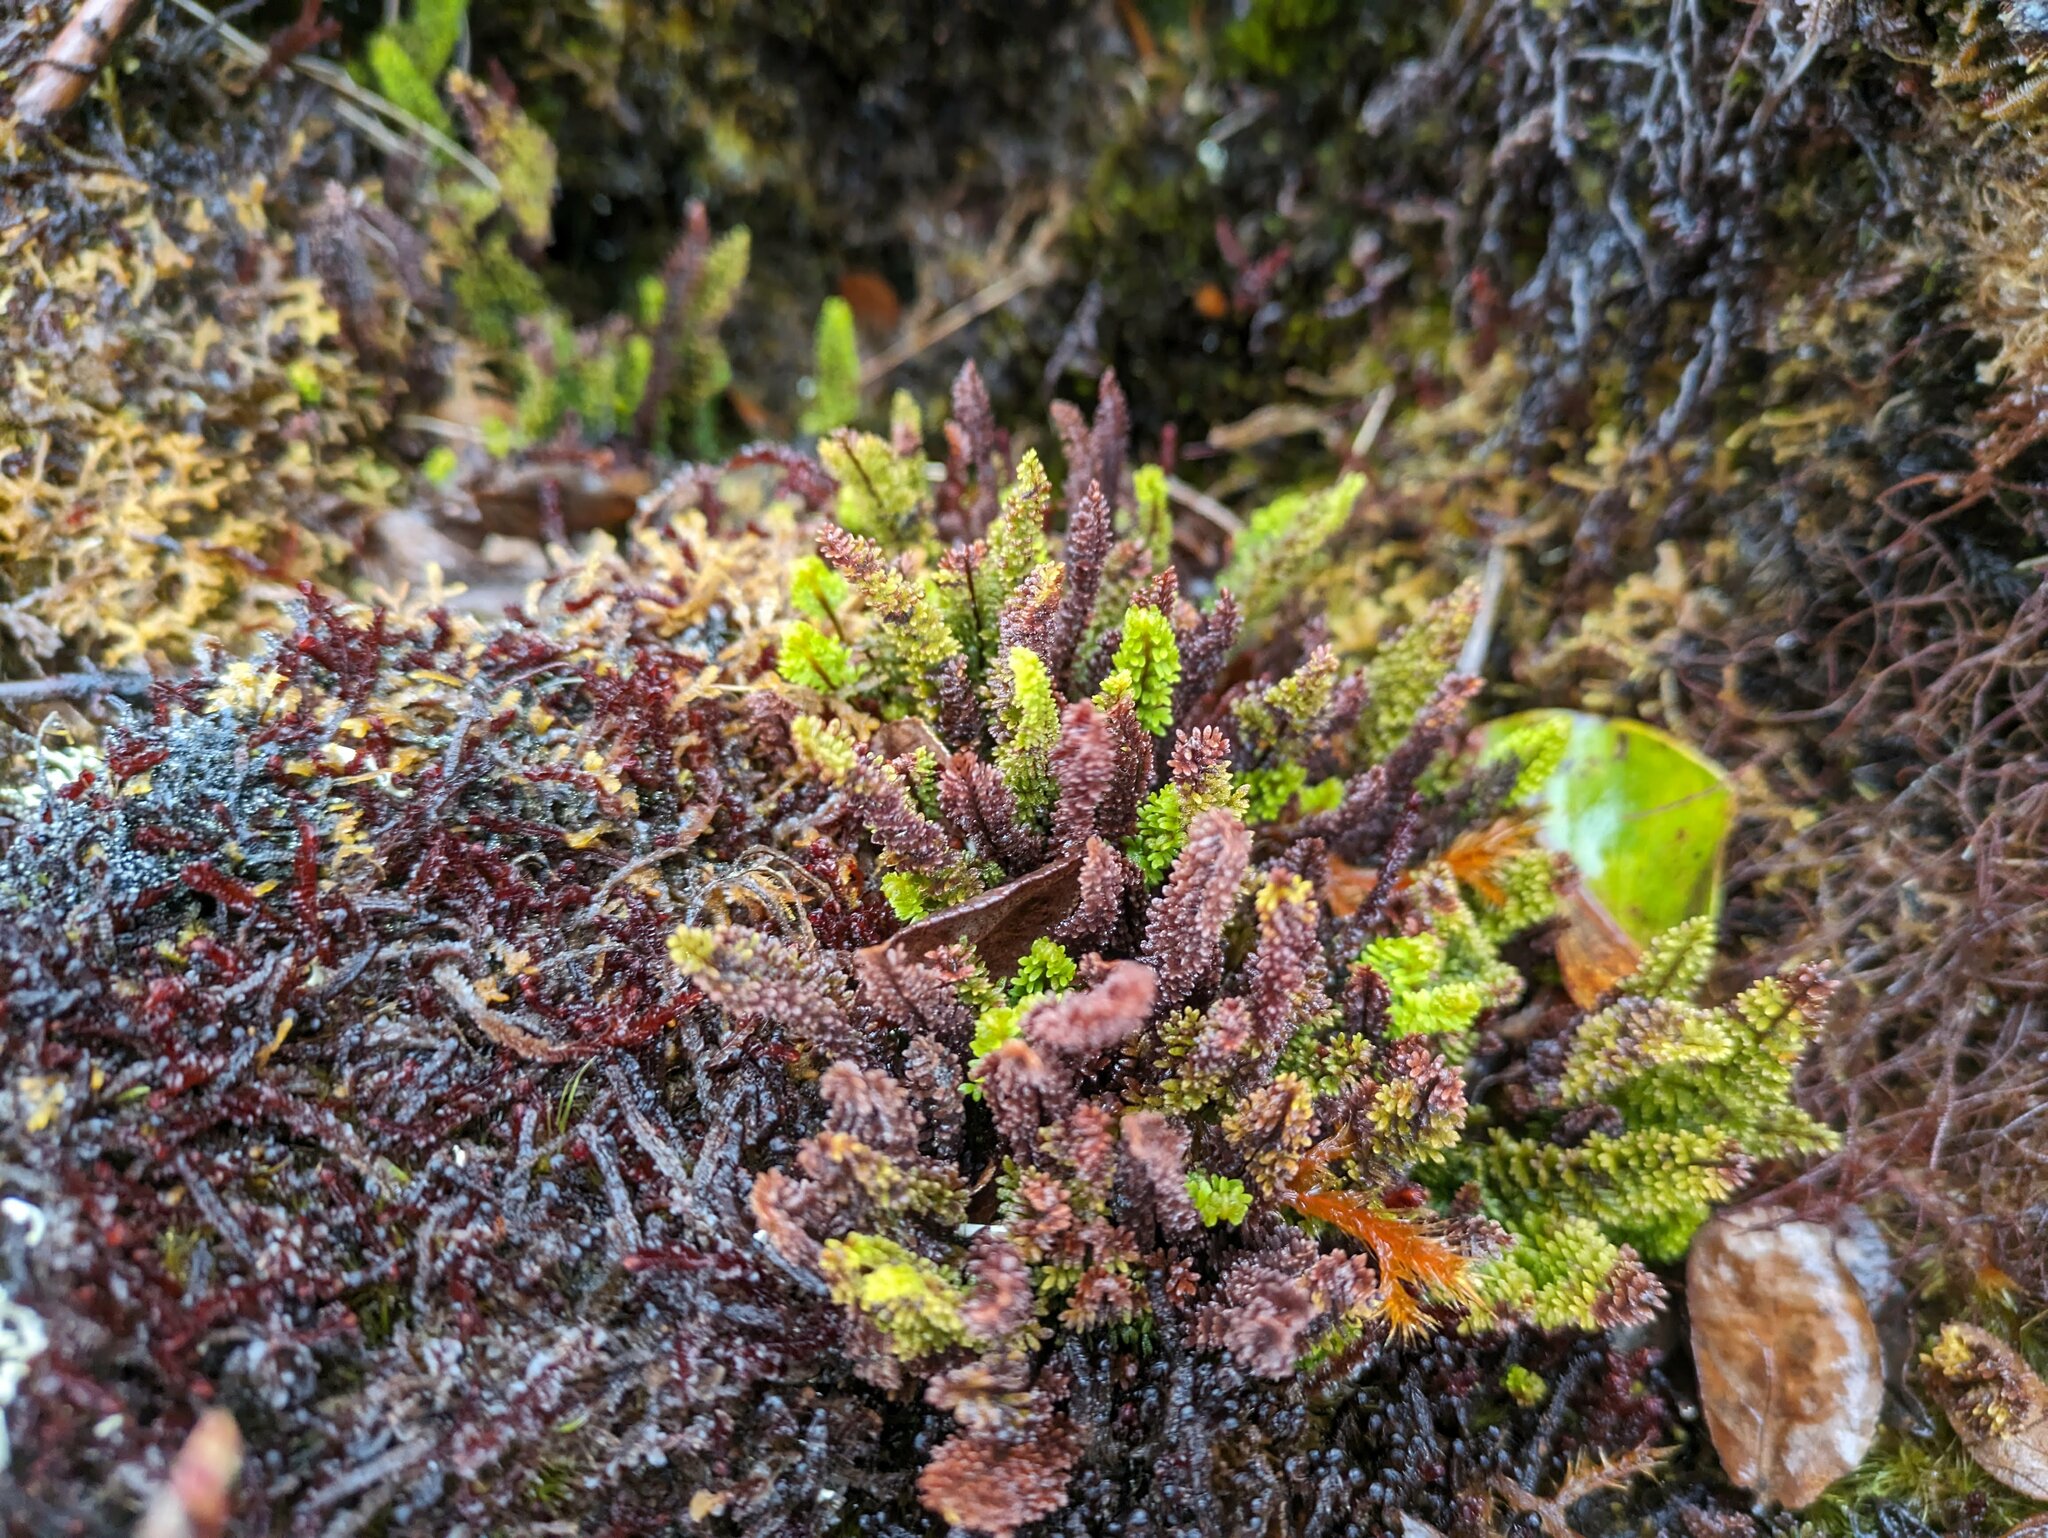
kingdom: Plantae
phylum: Tracheophyta
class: Polypodiopsida
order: Polypodiales
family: Polypodiaceae
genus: Adenophorus
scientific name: Adenophorus epigaeus
